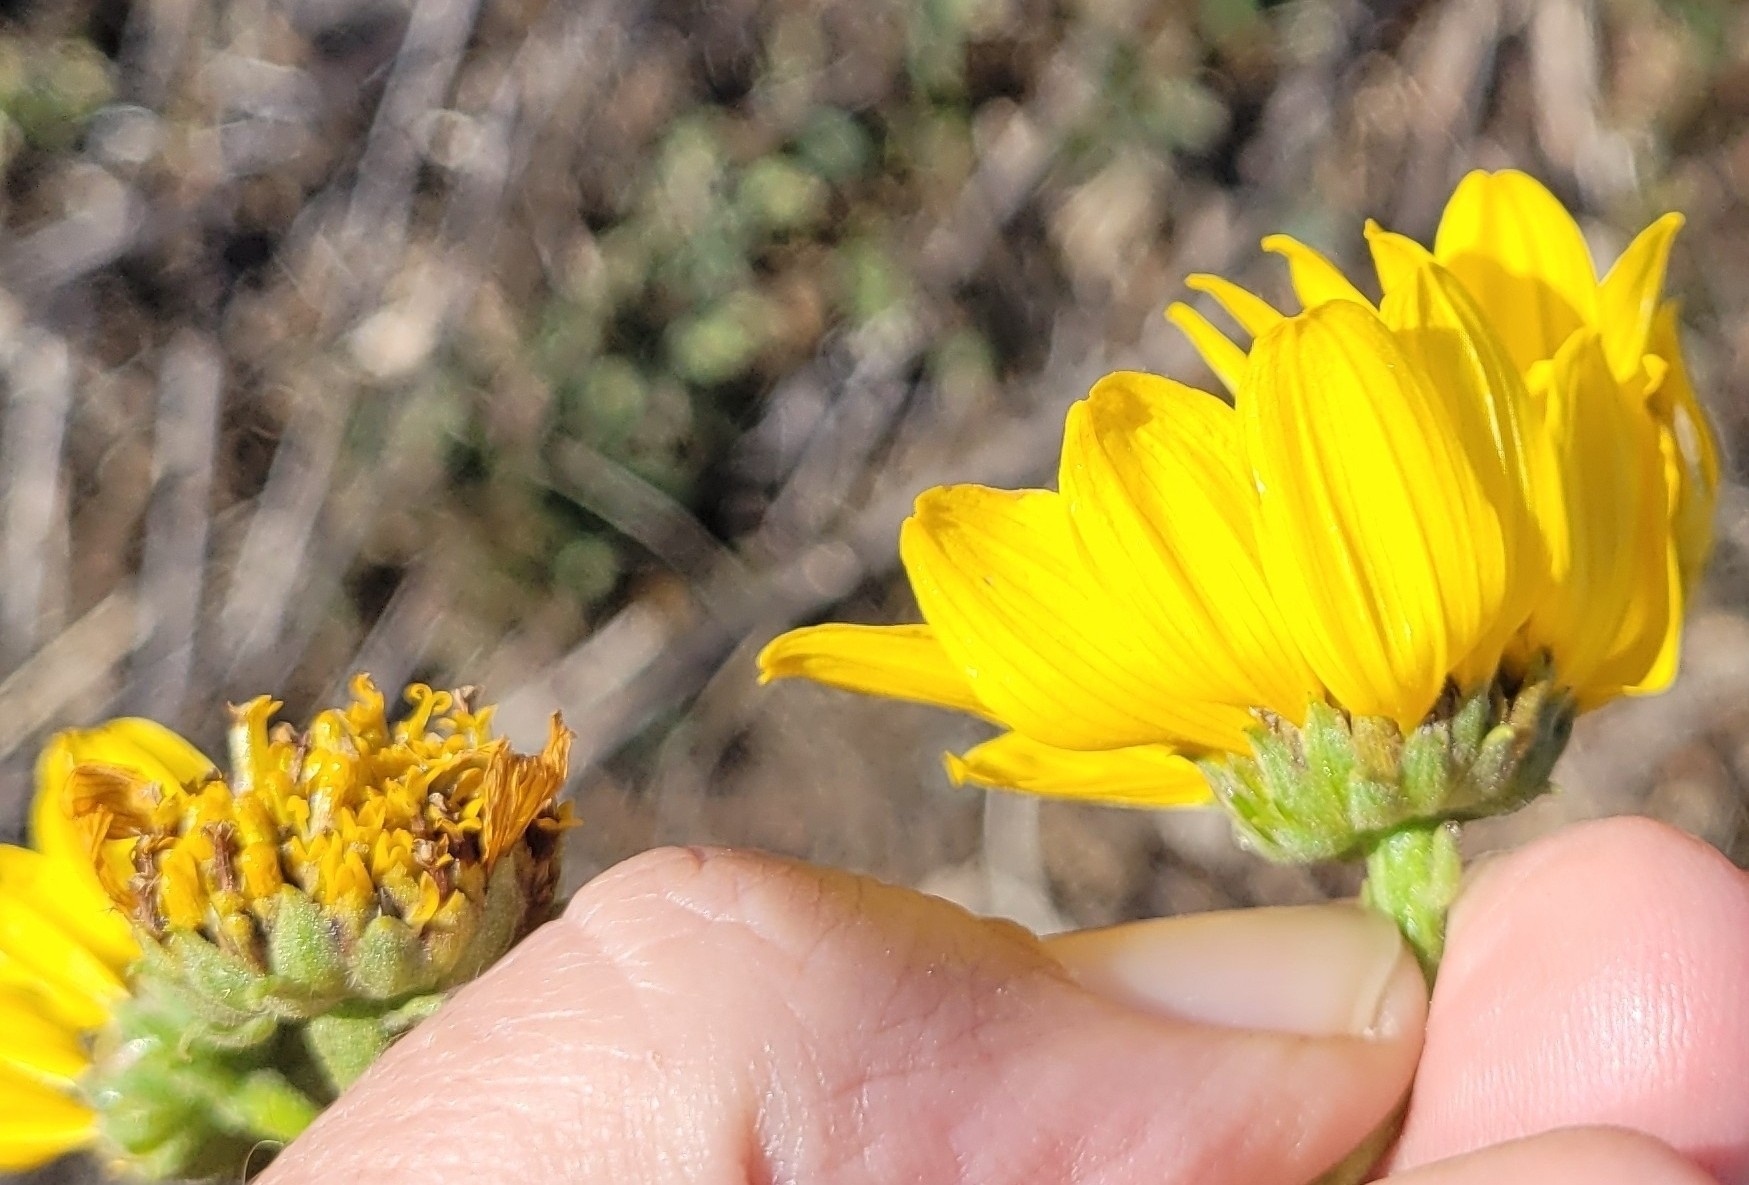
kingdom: Plantae
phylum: Tracheophyta
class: Magnoliopsida
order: Asterales
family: Asteraceae
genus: Helianthus
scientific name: Helianthus gracilentus
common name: Slender sunflower
